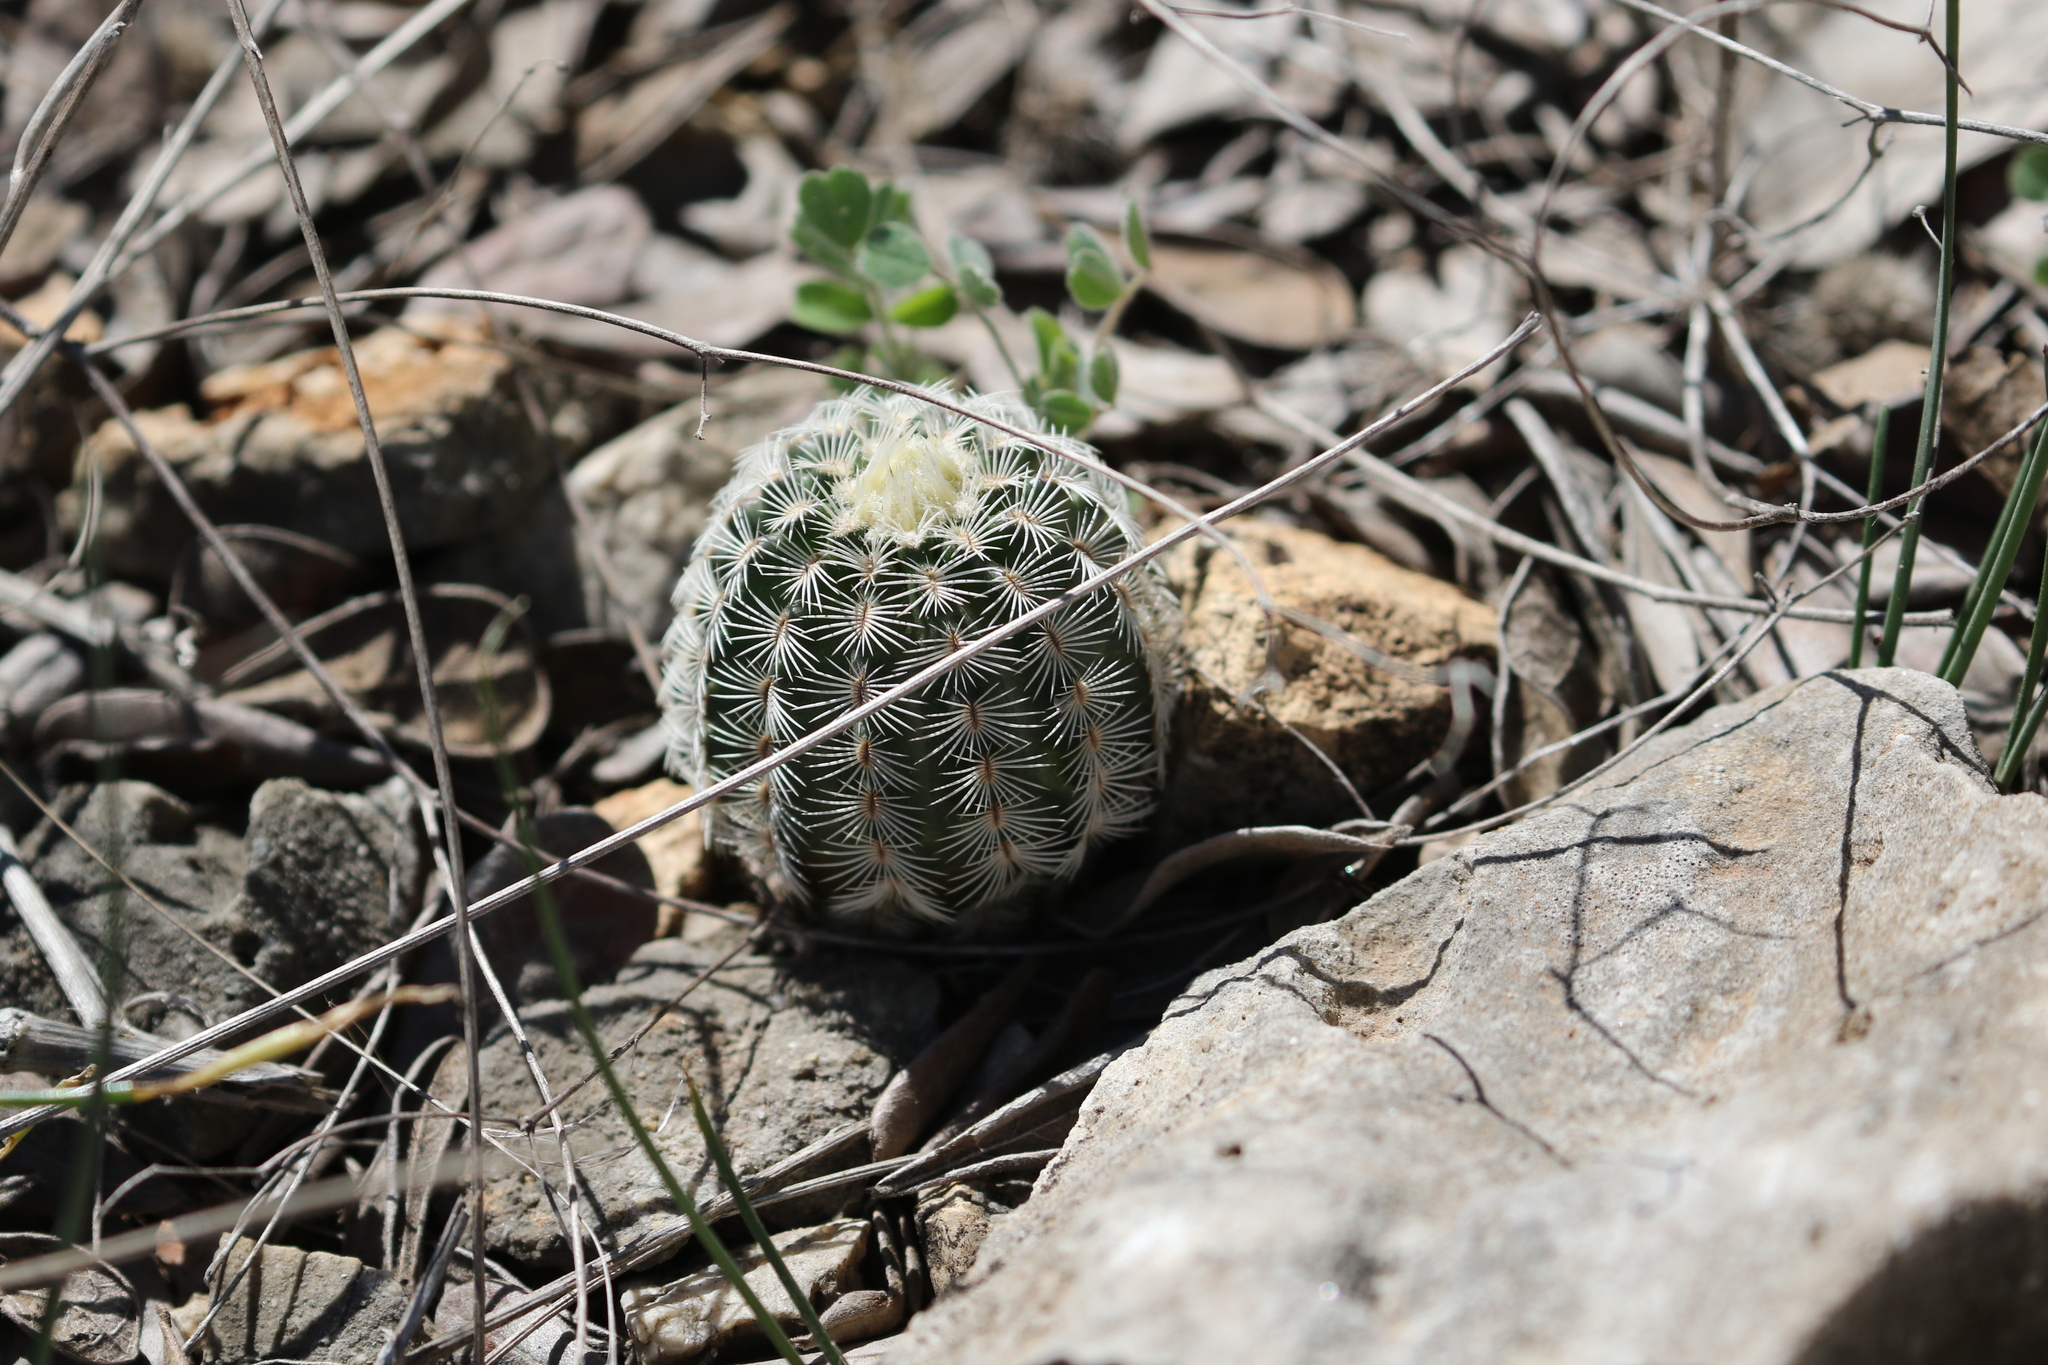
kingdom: Plantae
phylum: Tracheophyta
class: Magnoliopsida
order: Caryophyllales
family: Cactaceae
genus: Echinocereus
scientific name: Echinocereus reichenbachii
